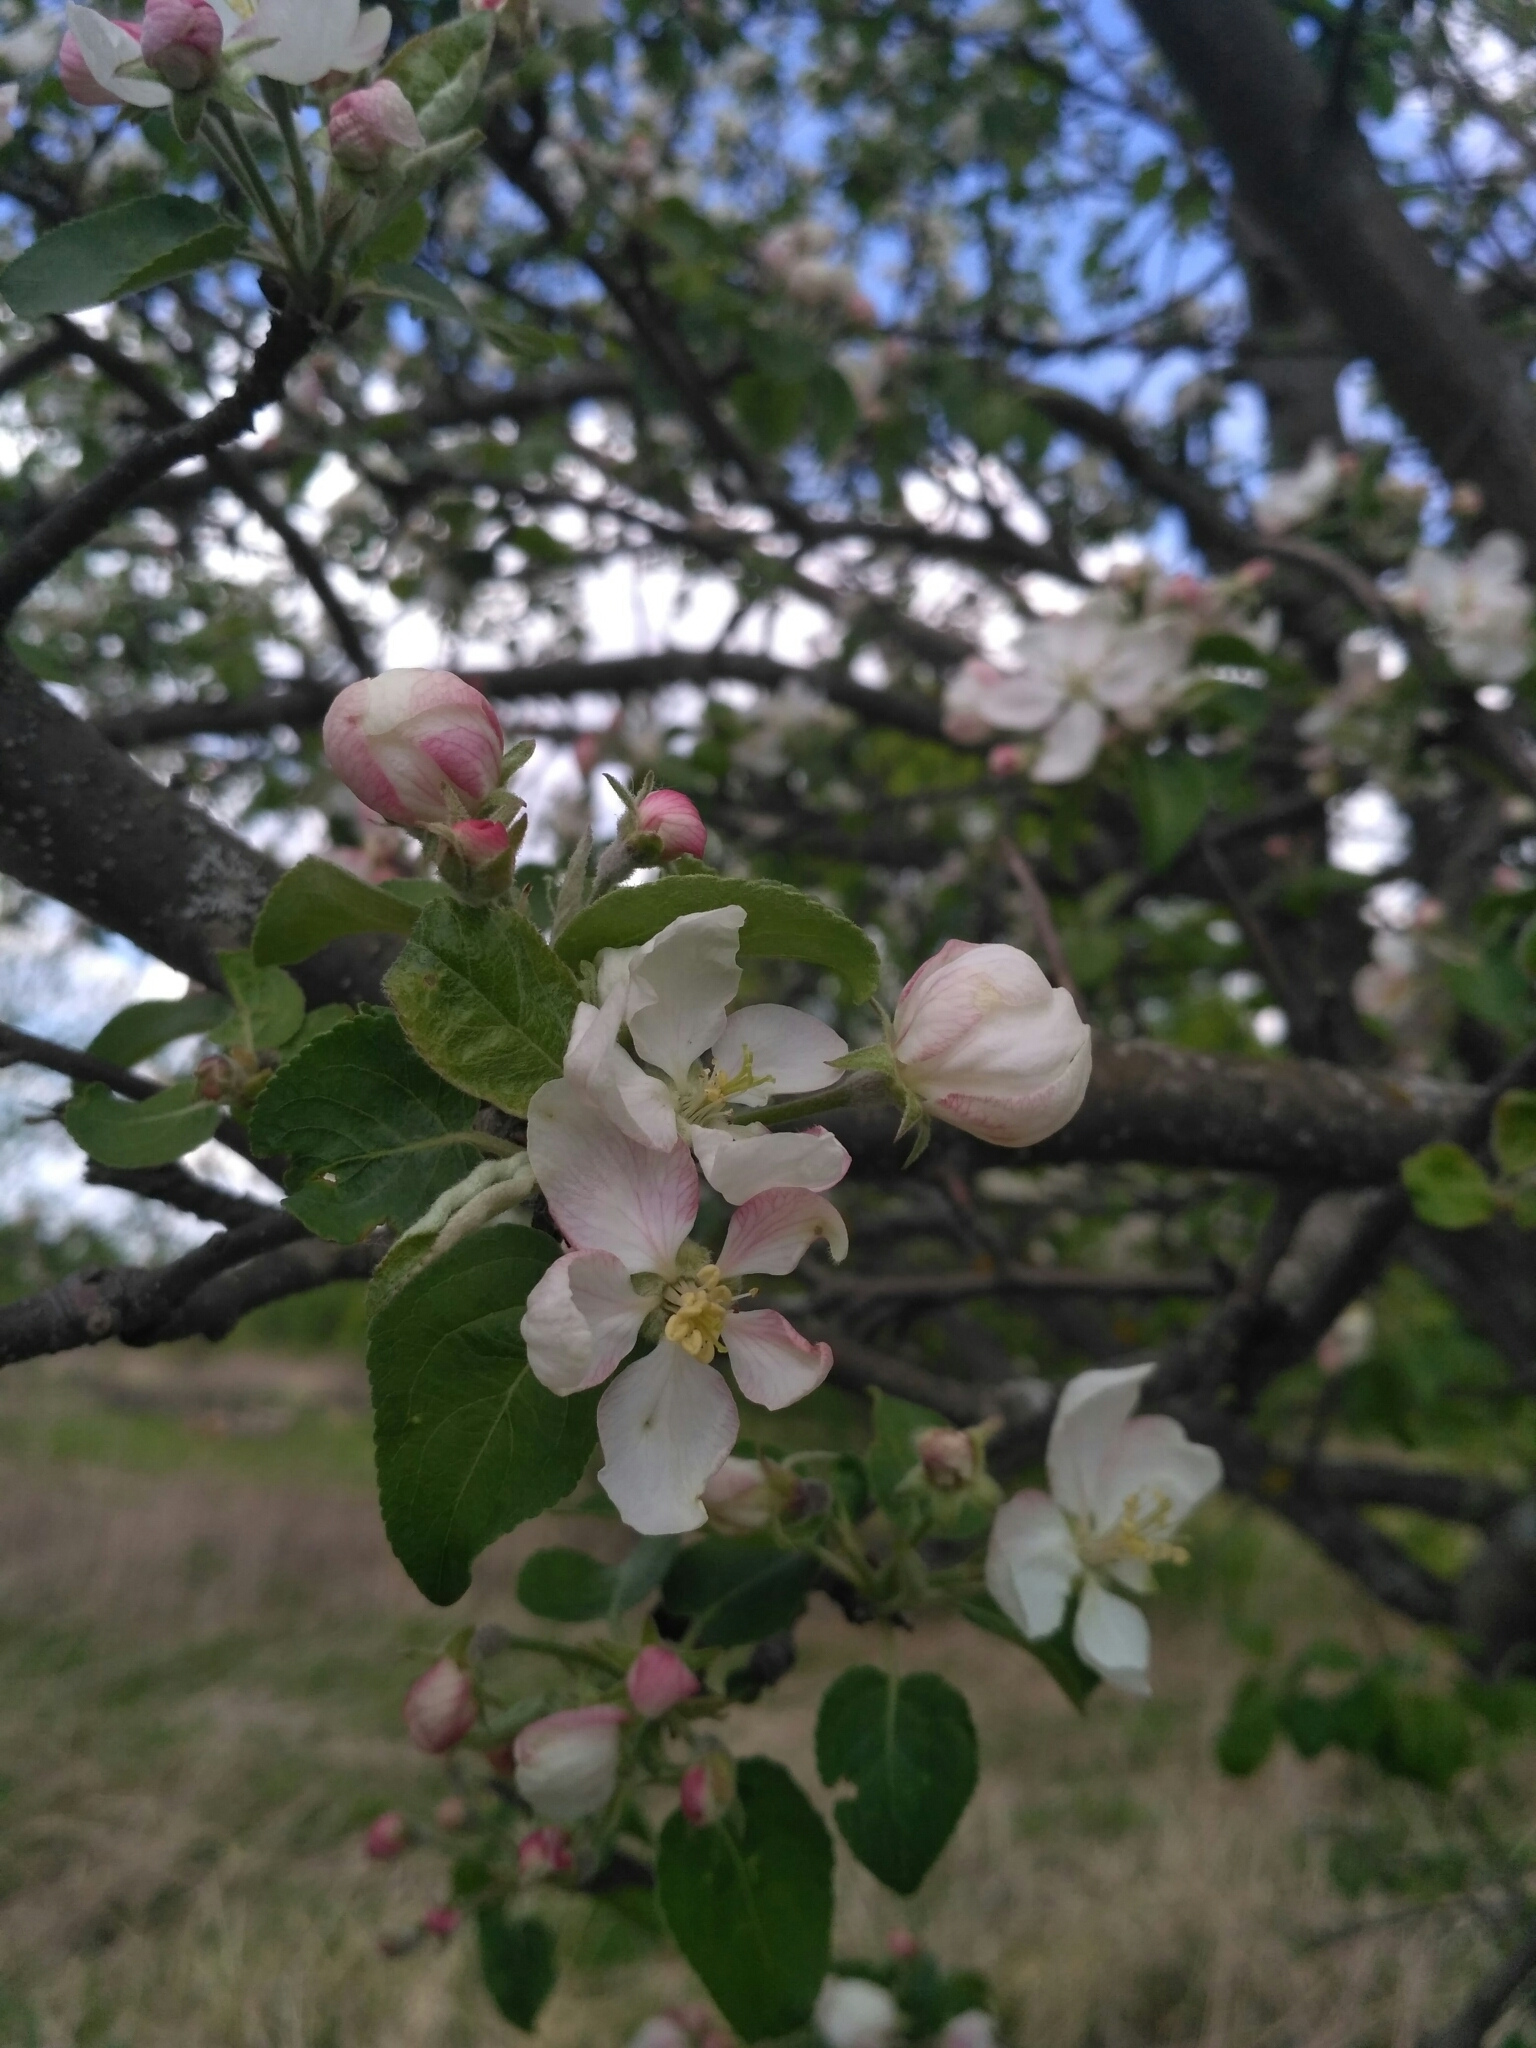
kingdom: Plantae
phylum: Tracheophyta
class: Magnoliopsida
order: Rosales
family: Rosaceae
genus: Malus
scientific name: Malus domestica
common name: Apple
